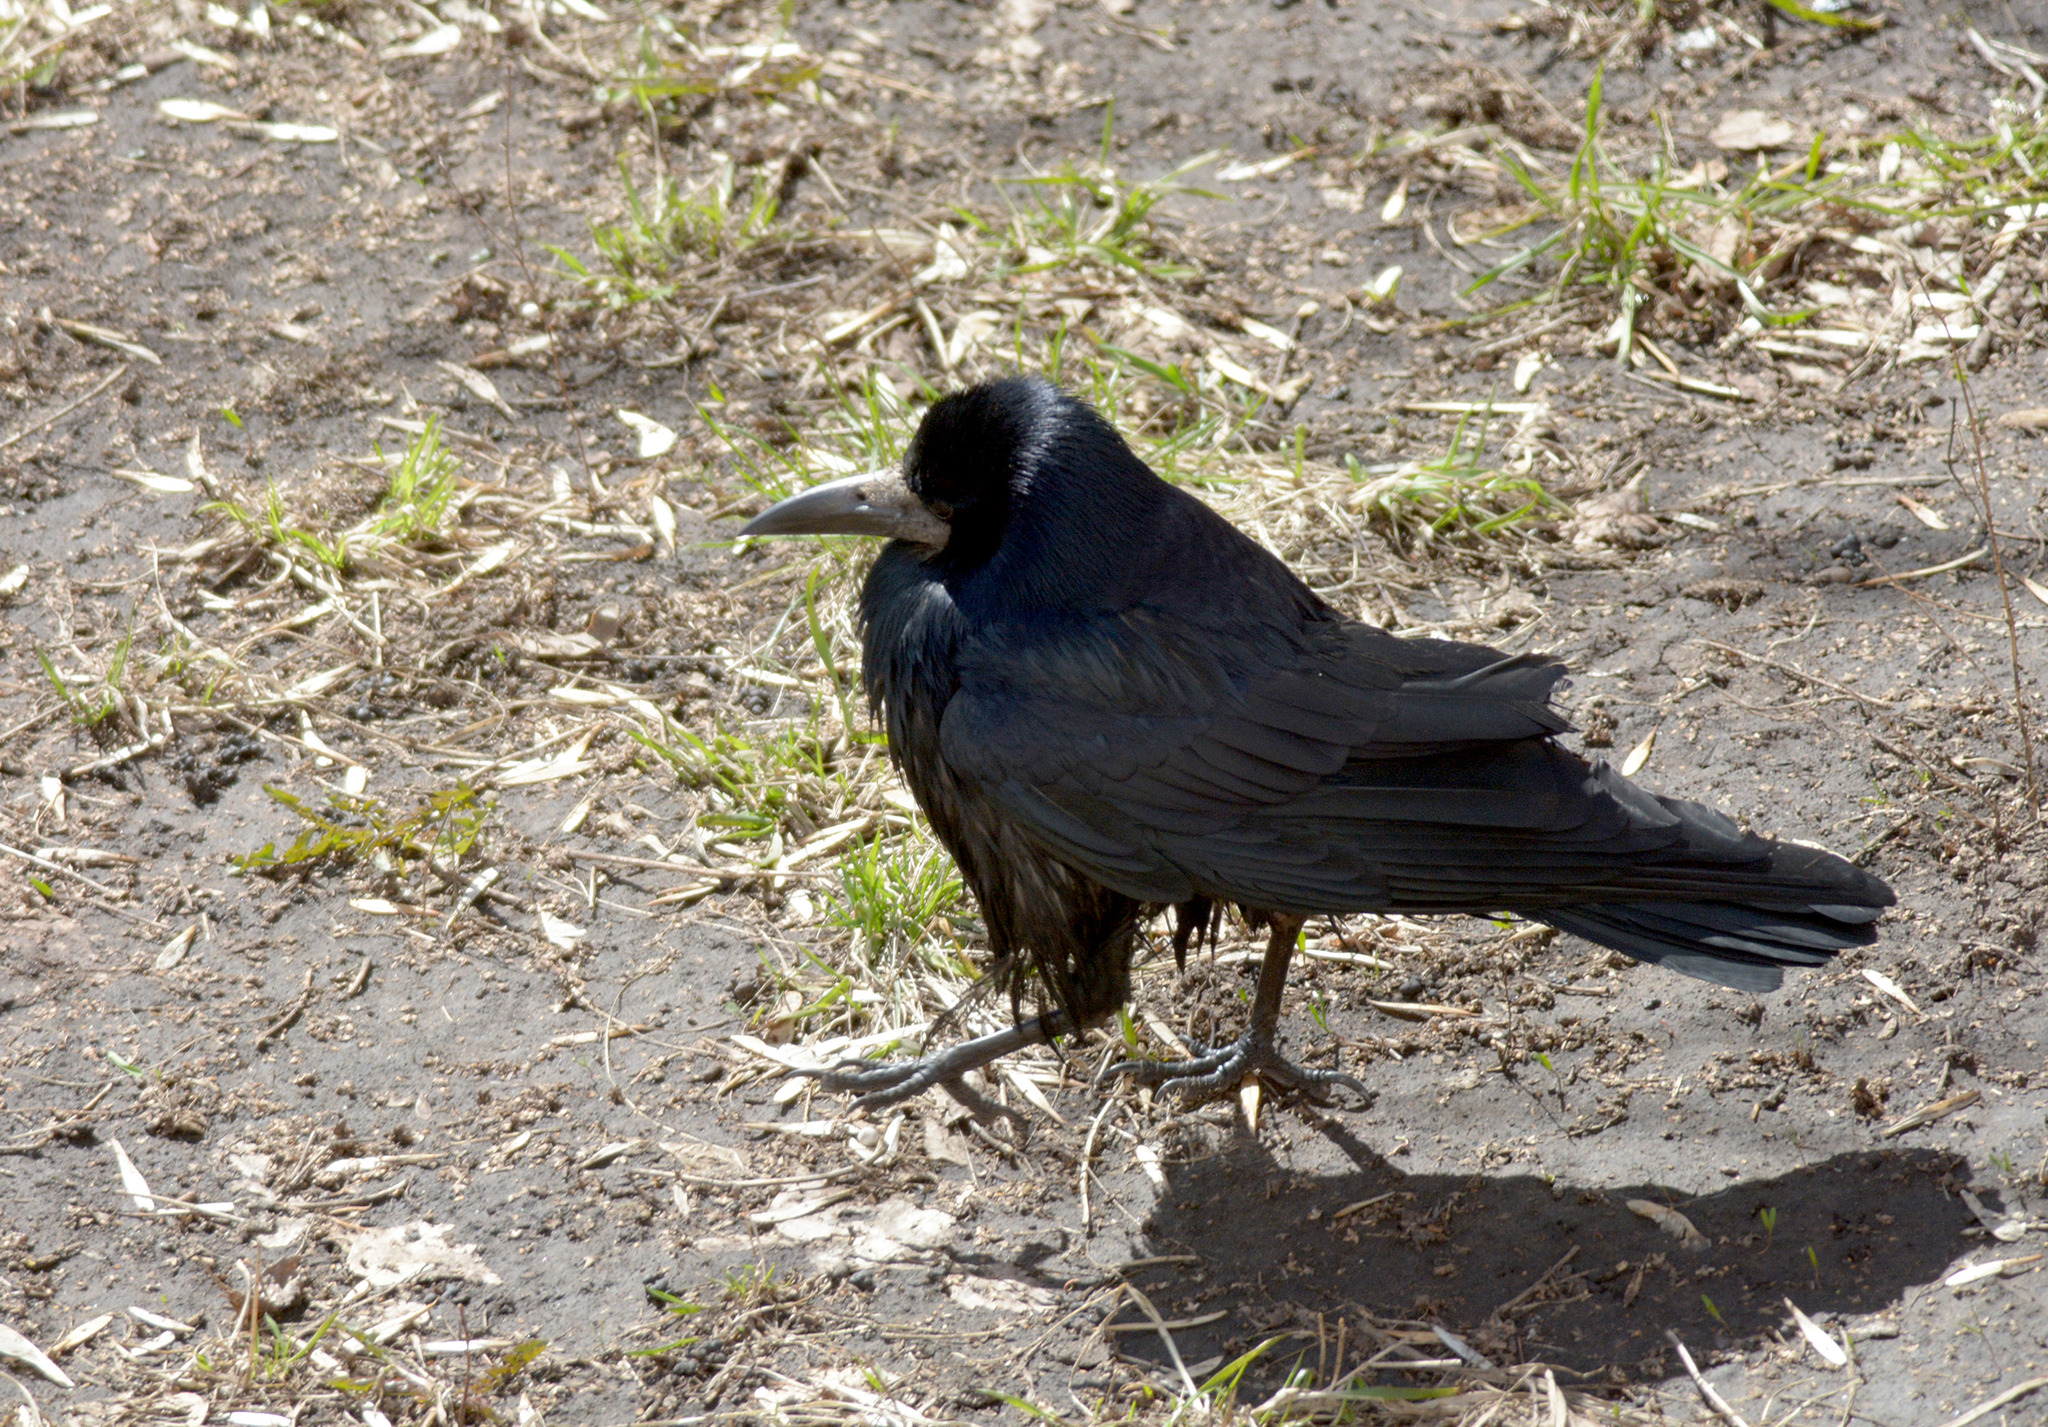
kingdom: Animalia
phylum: Chordata
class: Aves
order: Passeriformes
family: Corvidae
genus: Corvus
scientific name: Corvus frugilegus
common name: Rook
